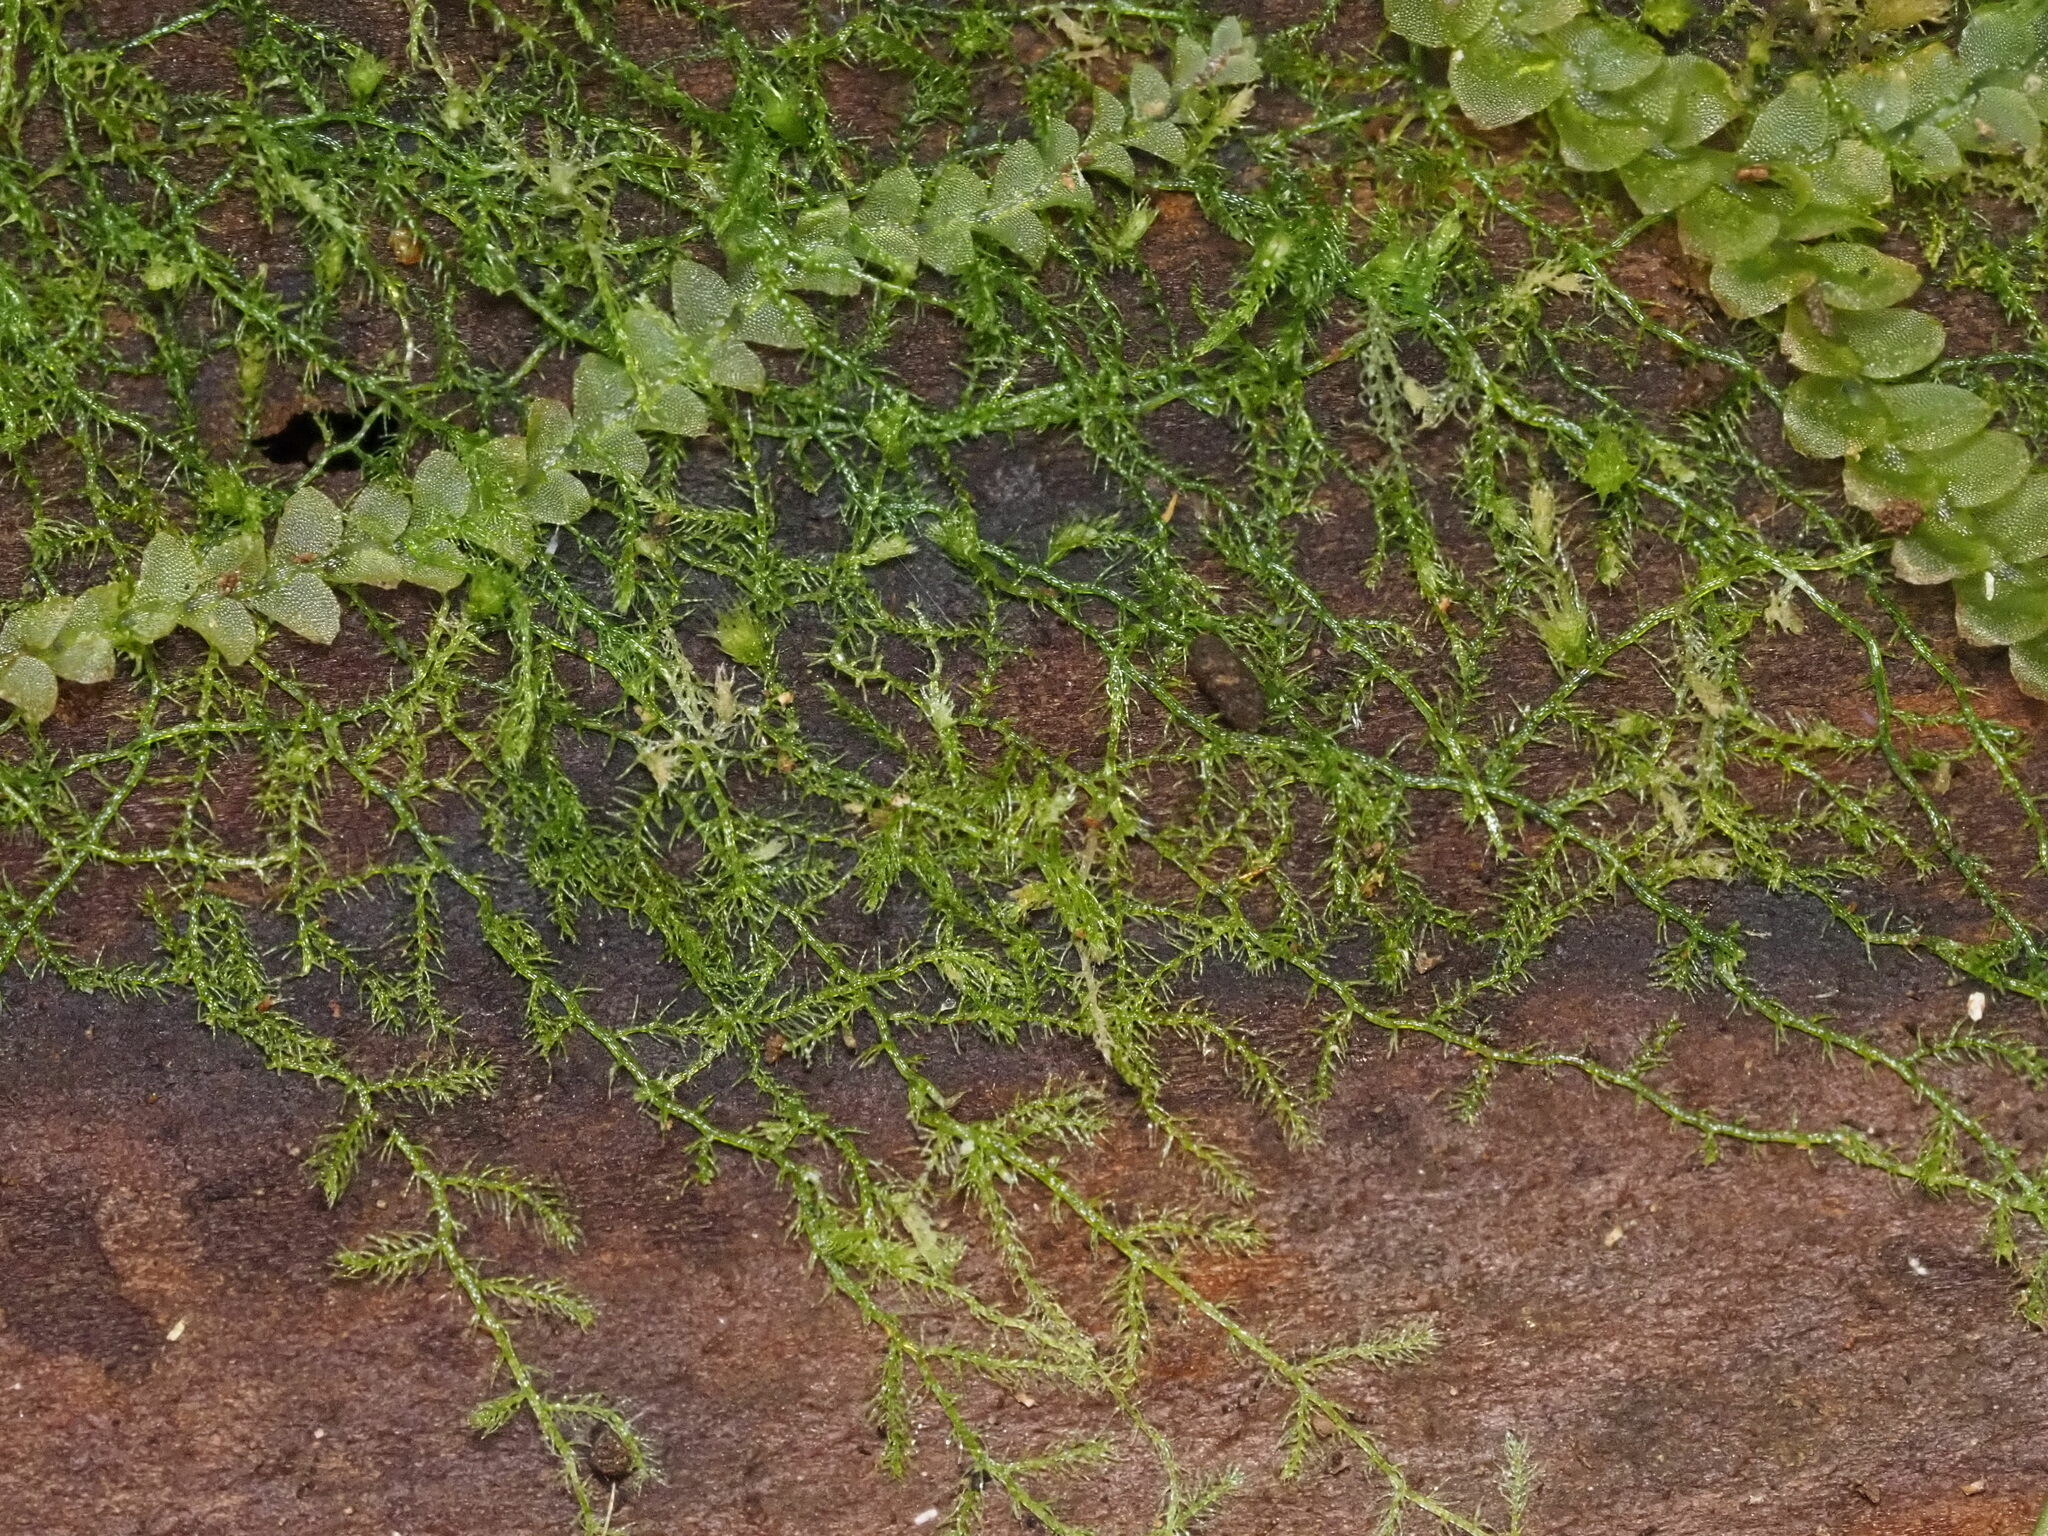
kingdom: Plantae
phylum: Marchantiophyta
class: Jungermanniopsida
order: Jungermanniales
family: Lepidoziaceae
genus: Telaranea
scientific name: Telaranea nematodes
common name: Irish threadwort
